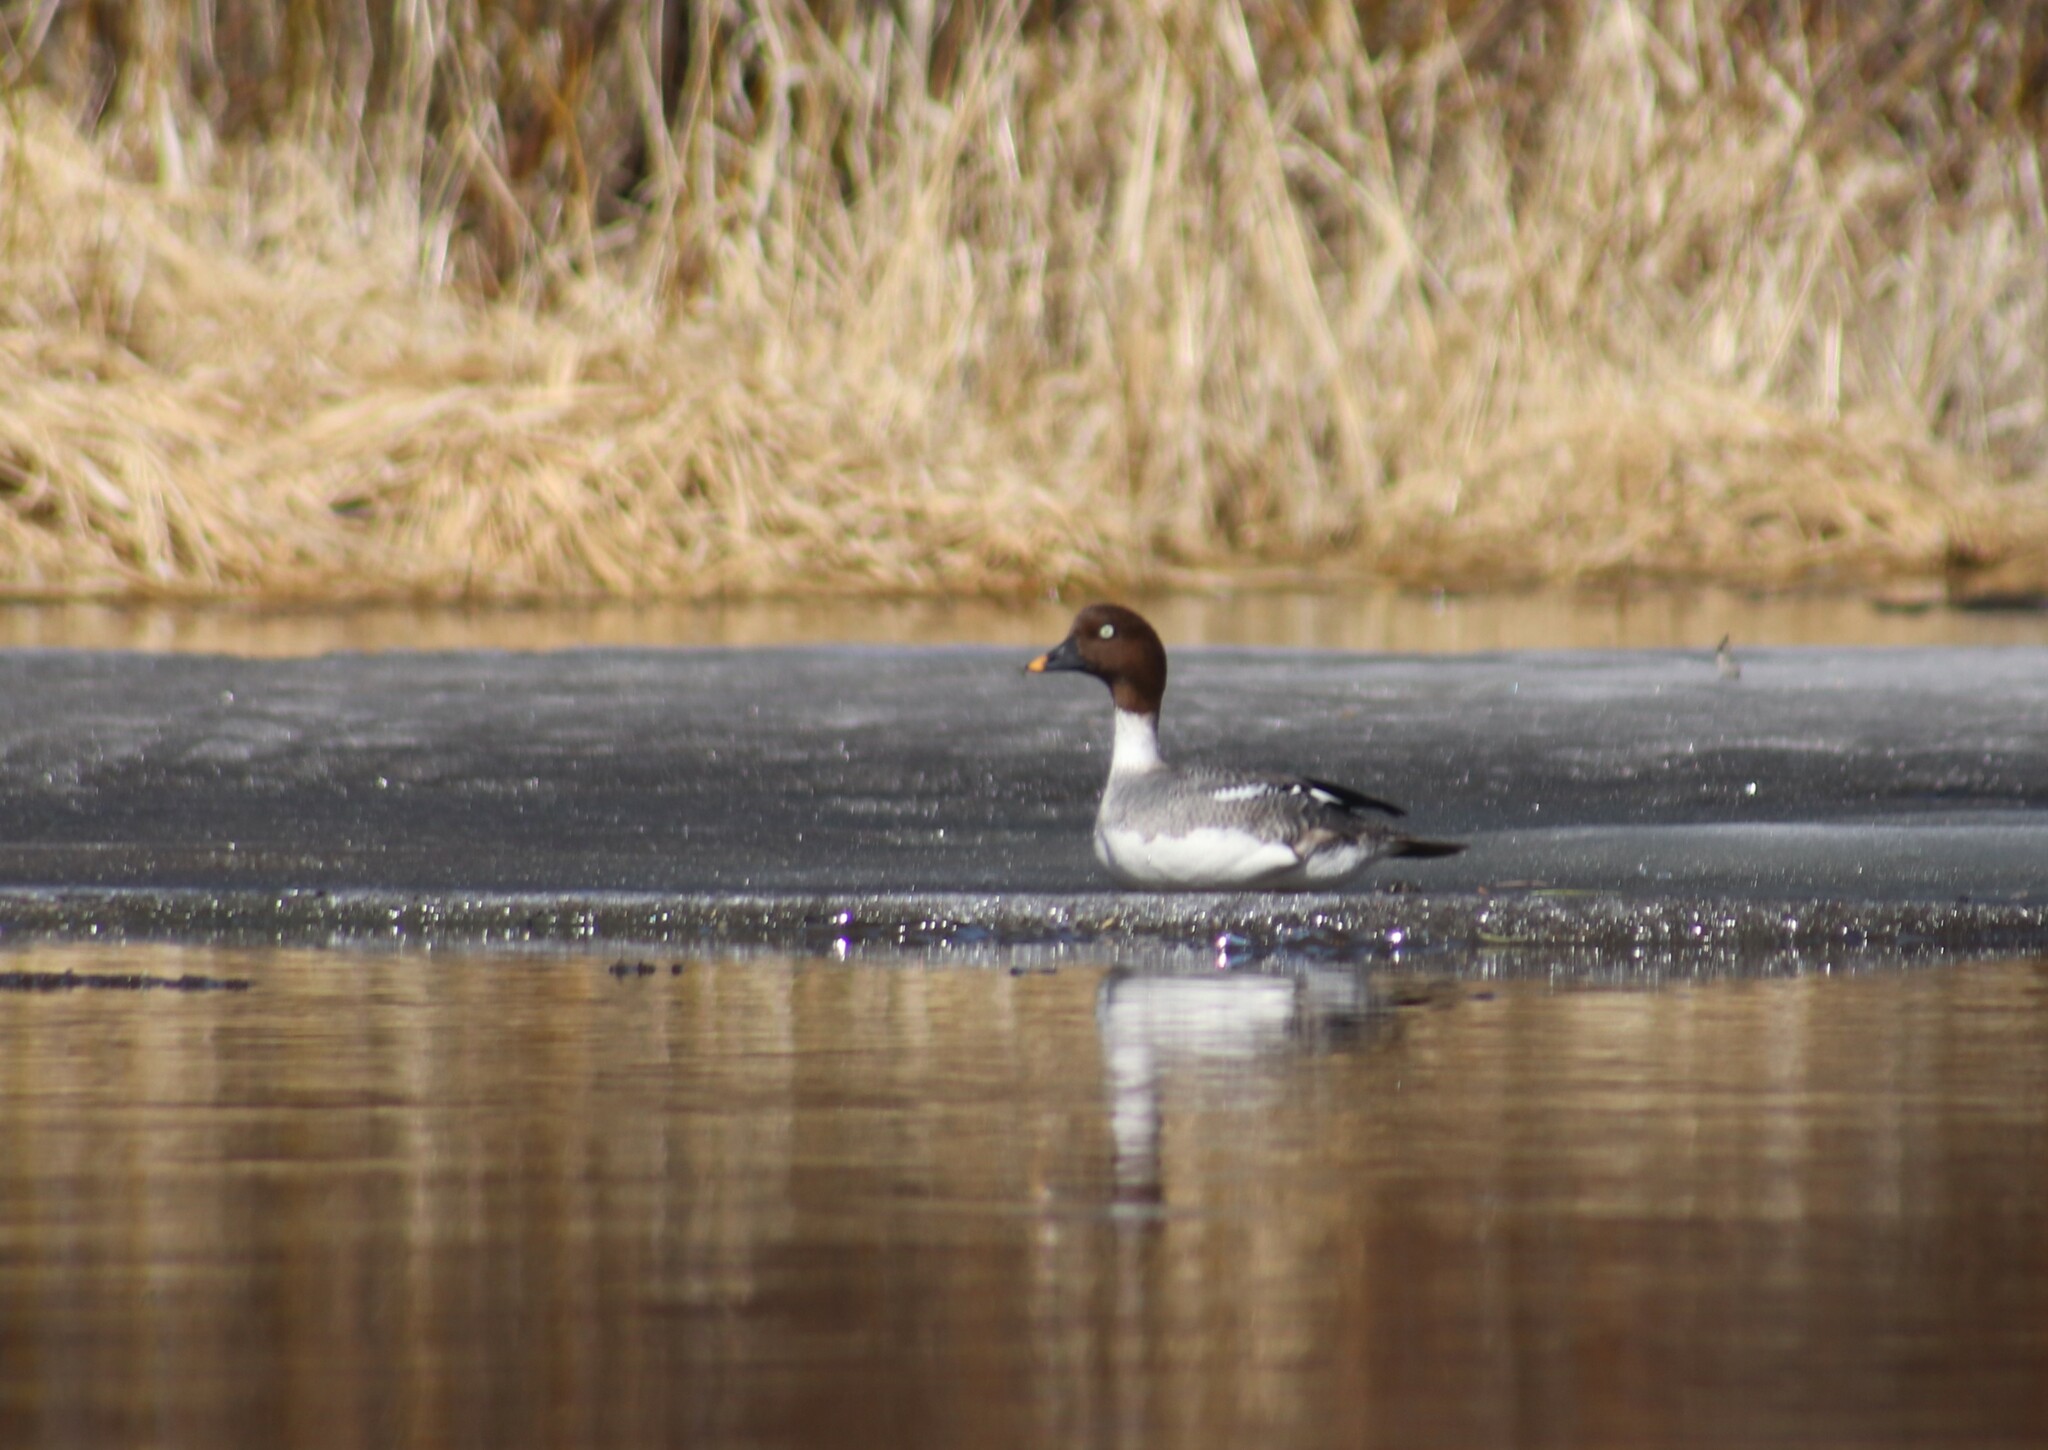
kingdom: Animalia
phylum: Chordata
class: Aves
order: Anseriformes
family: Anatidae
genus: Bucephala
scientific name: Bucephala clangula
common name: Common goldeneye
